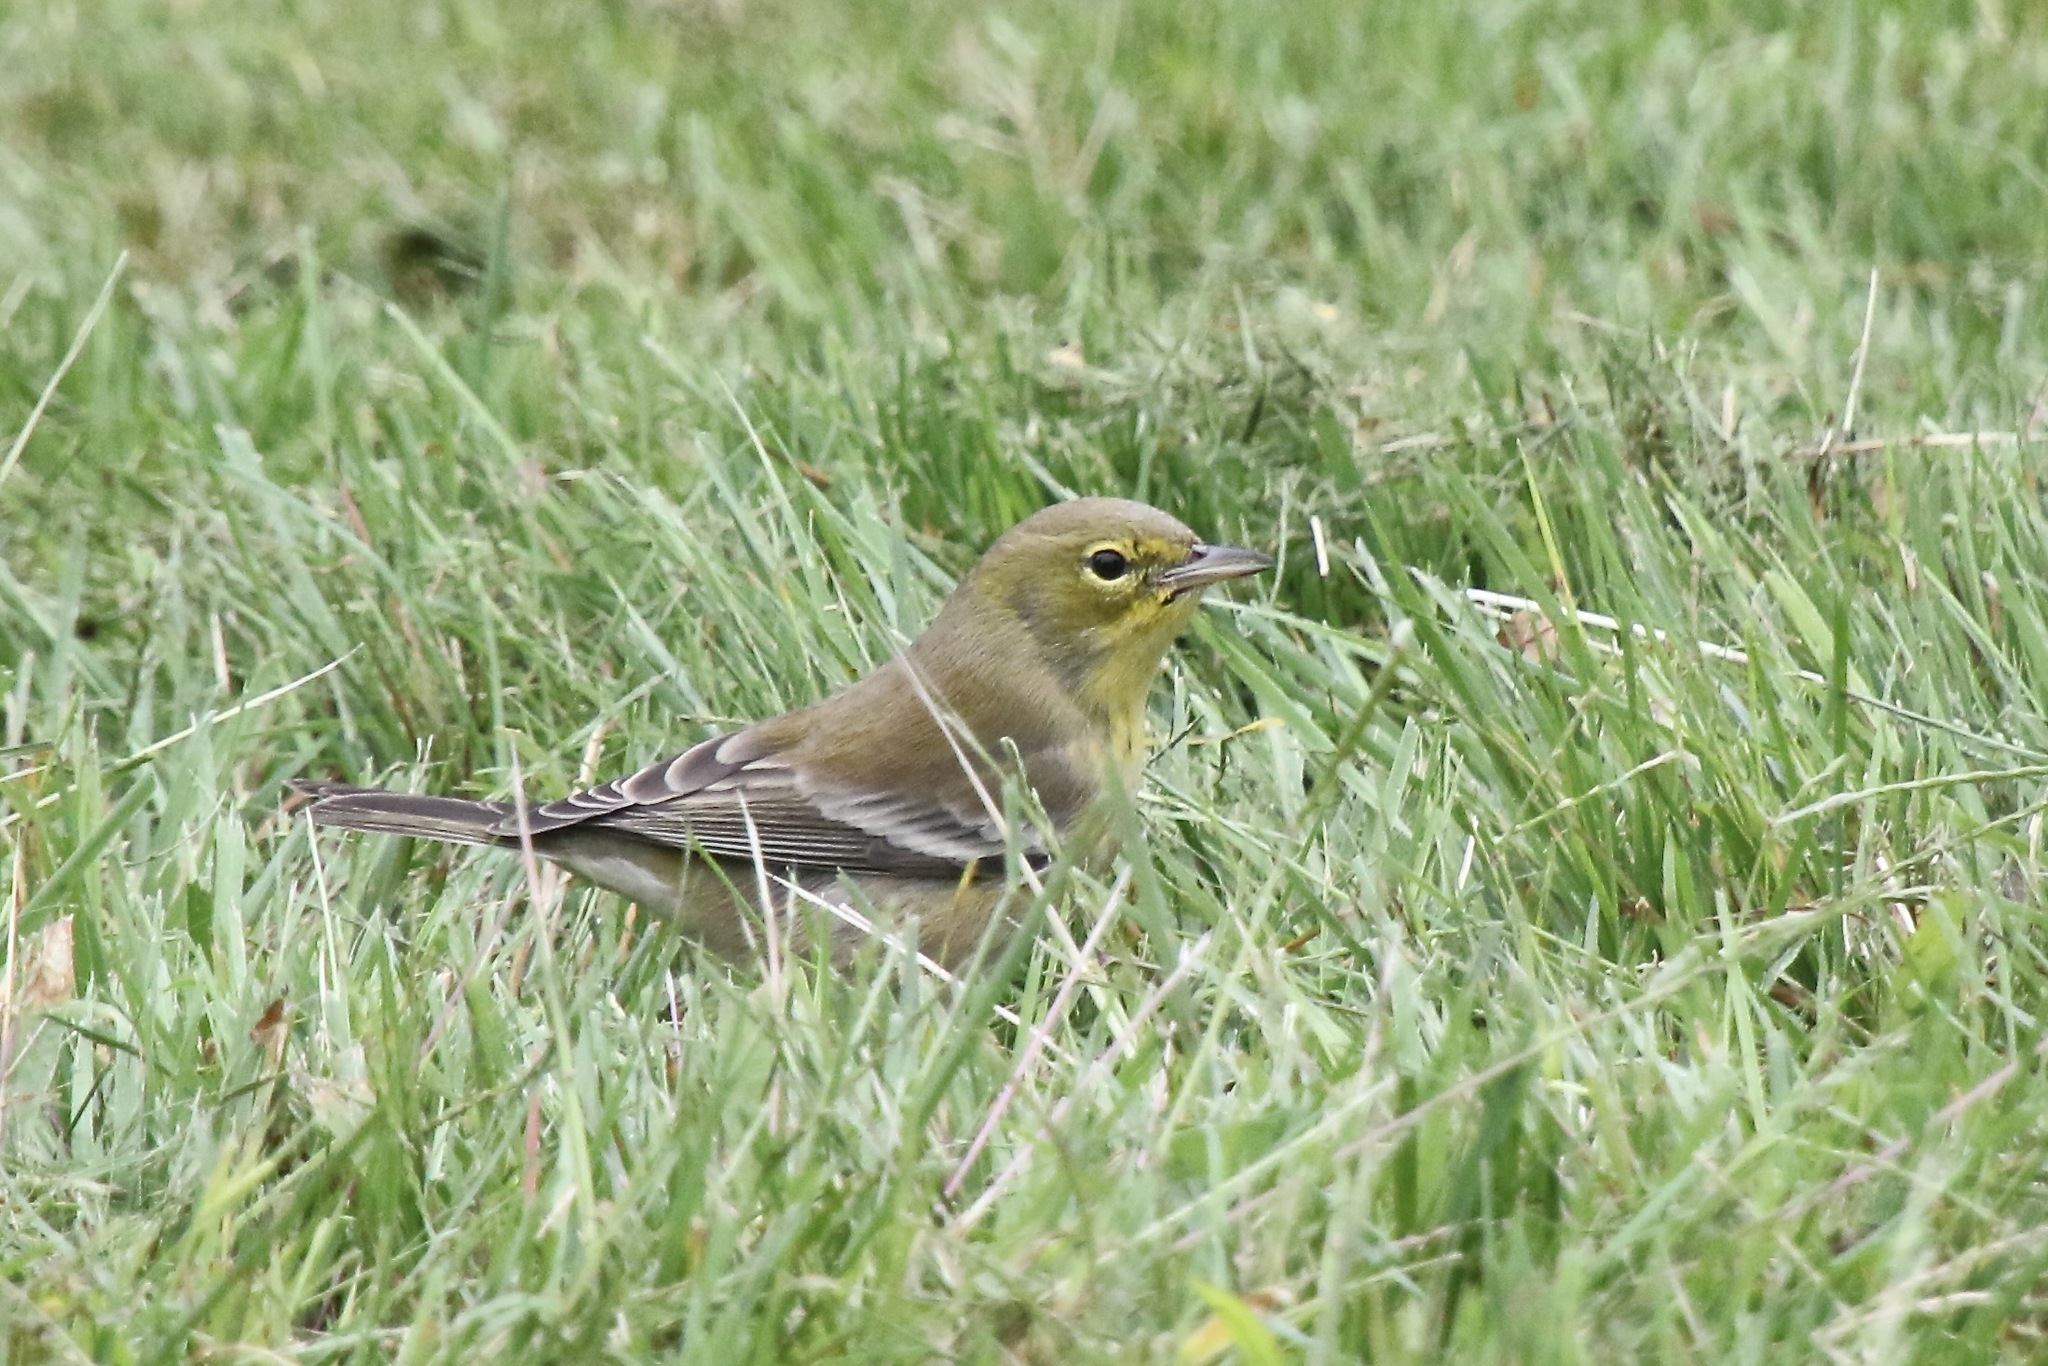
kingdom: Animalia
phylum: Chordata
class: Aves
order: Passeriformes
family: Parulidae
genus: Setophaga
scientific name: Setophaga pinus
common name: Pine warbler
